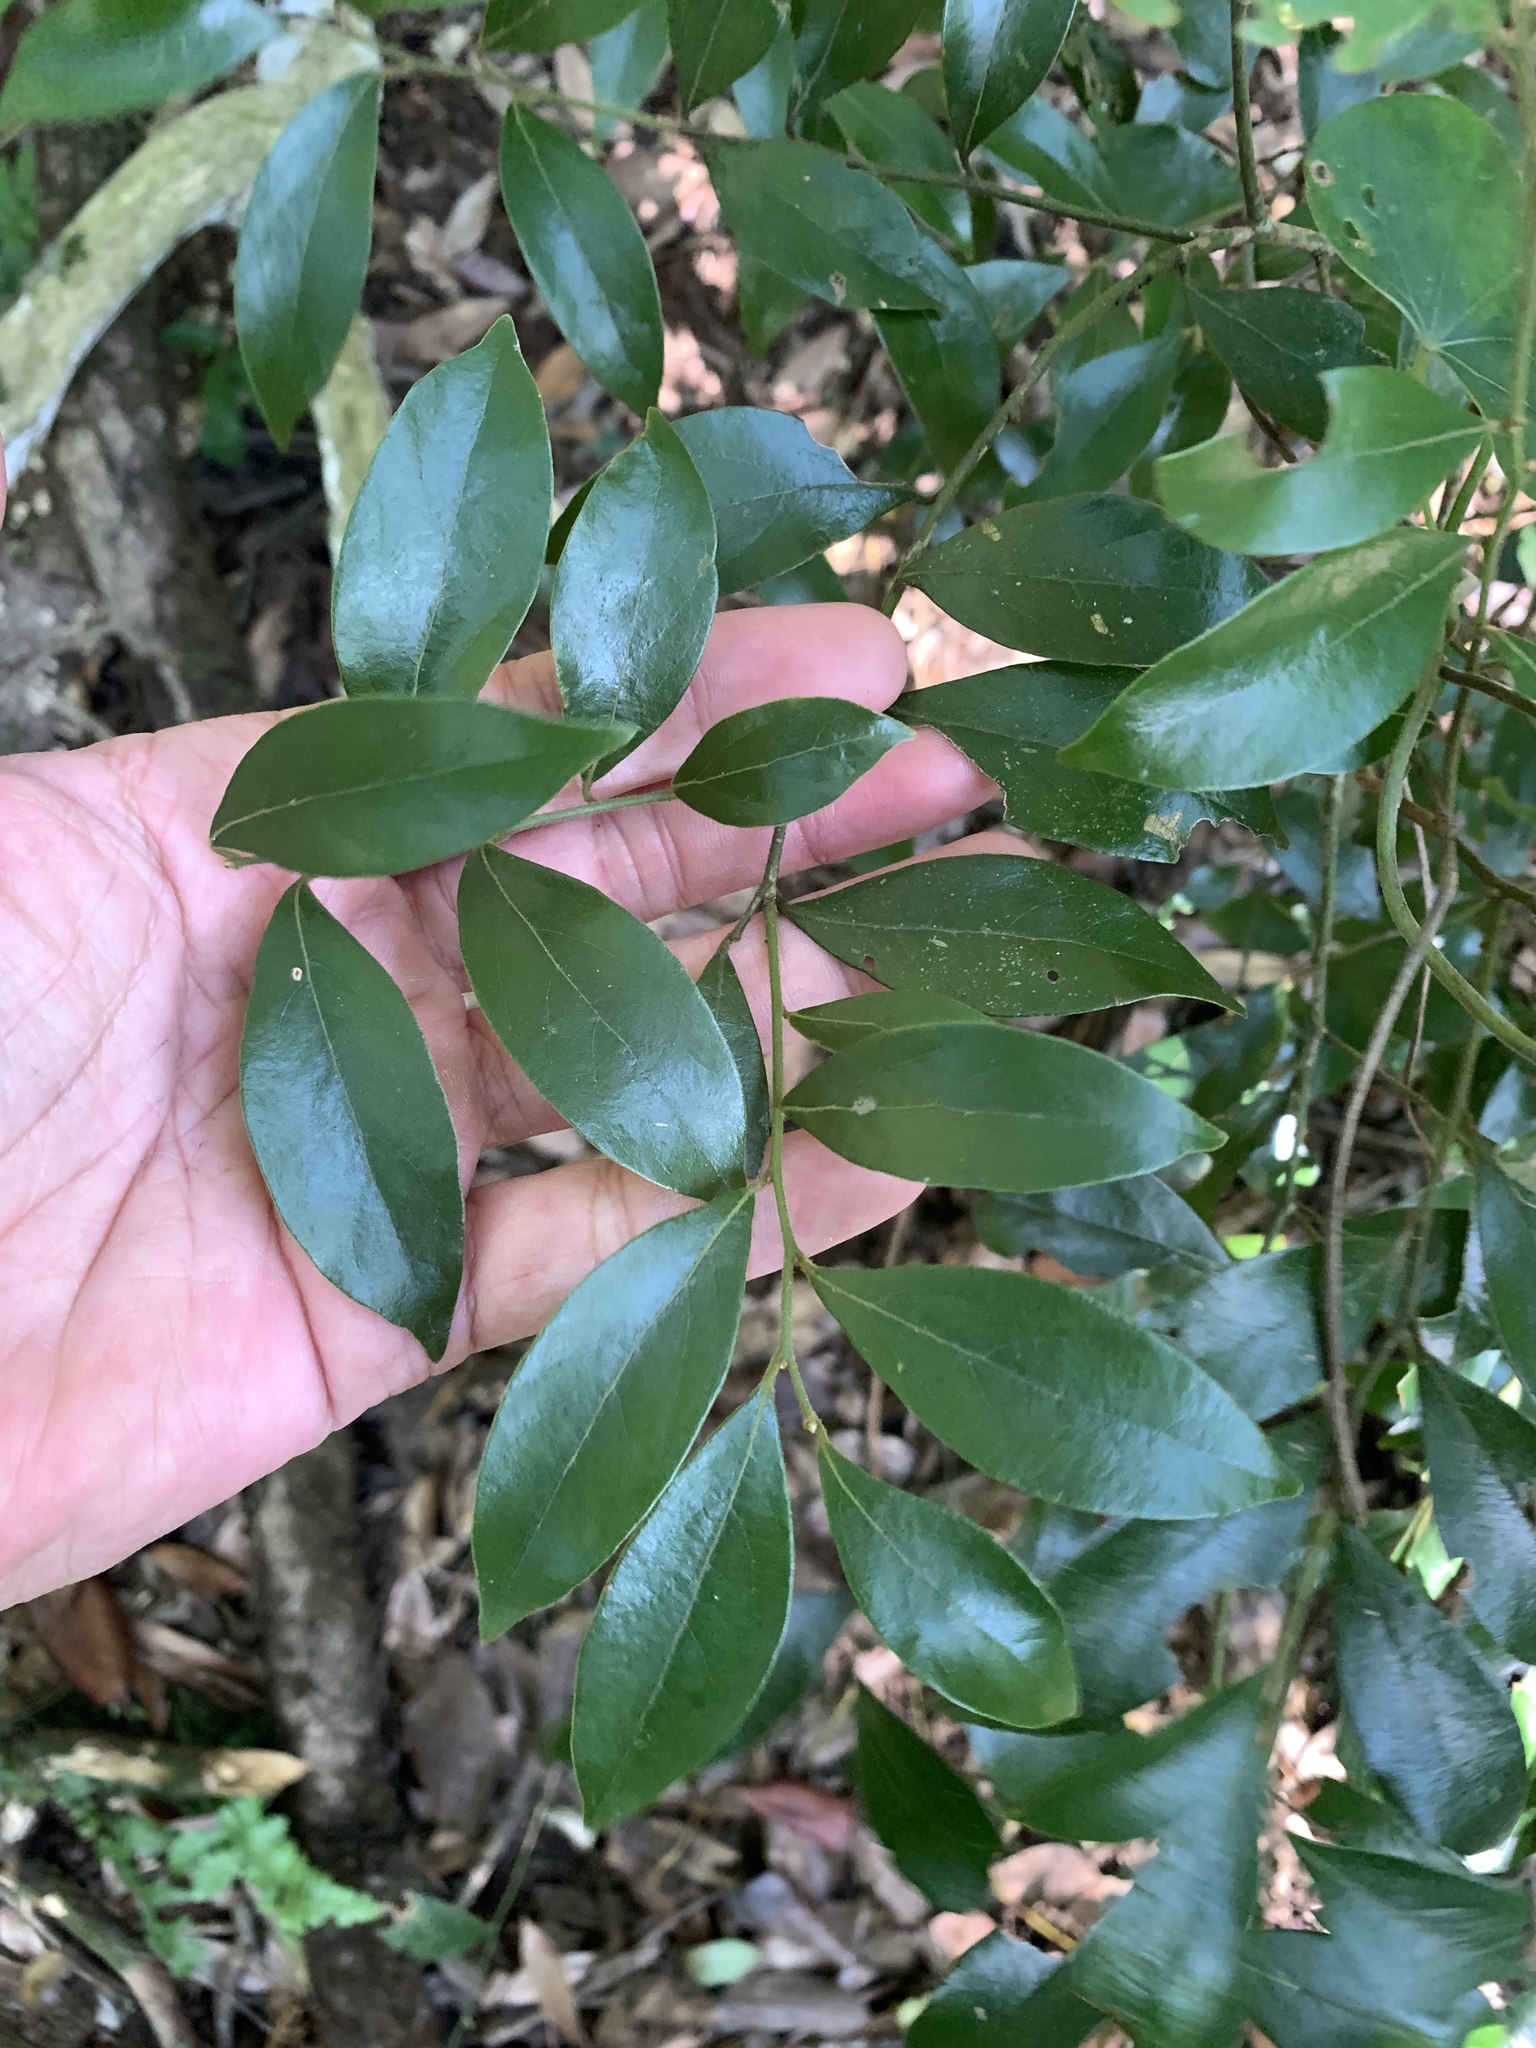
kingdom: Plantae
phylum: Tracheophyta
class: Magnoliopsida
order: Laurales
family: Lauraceae
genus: Lindera
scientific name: Lindera communis
